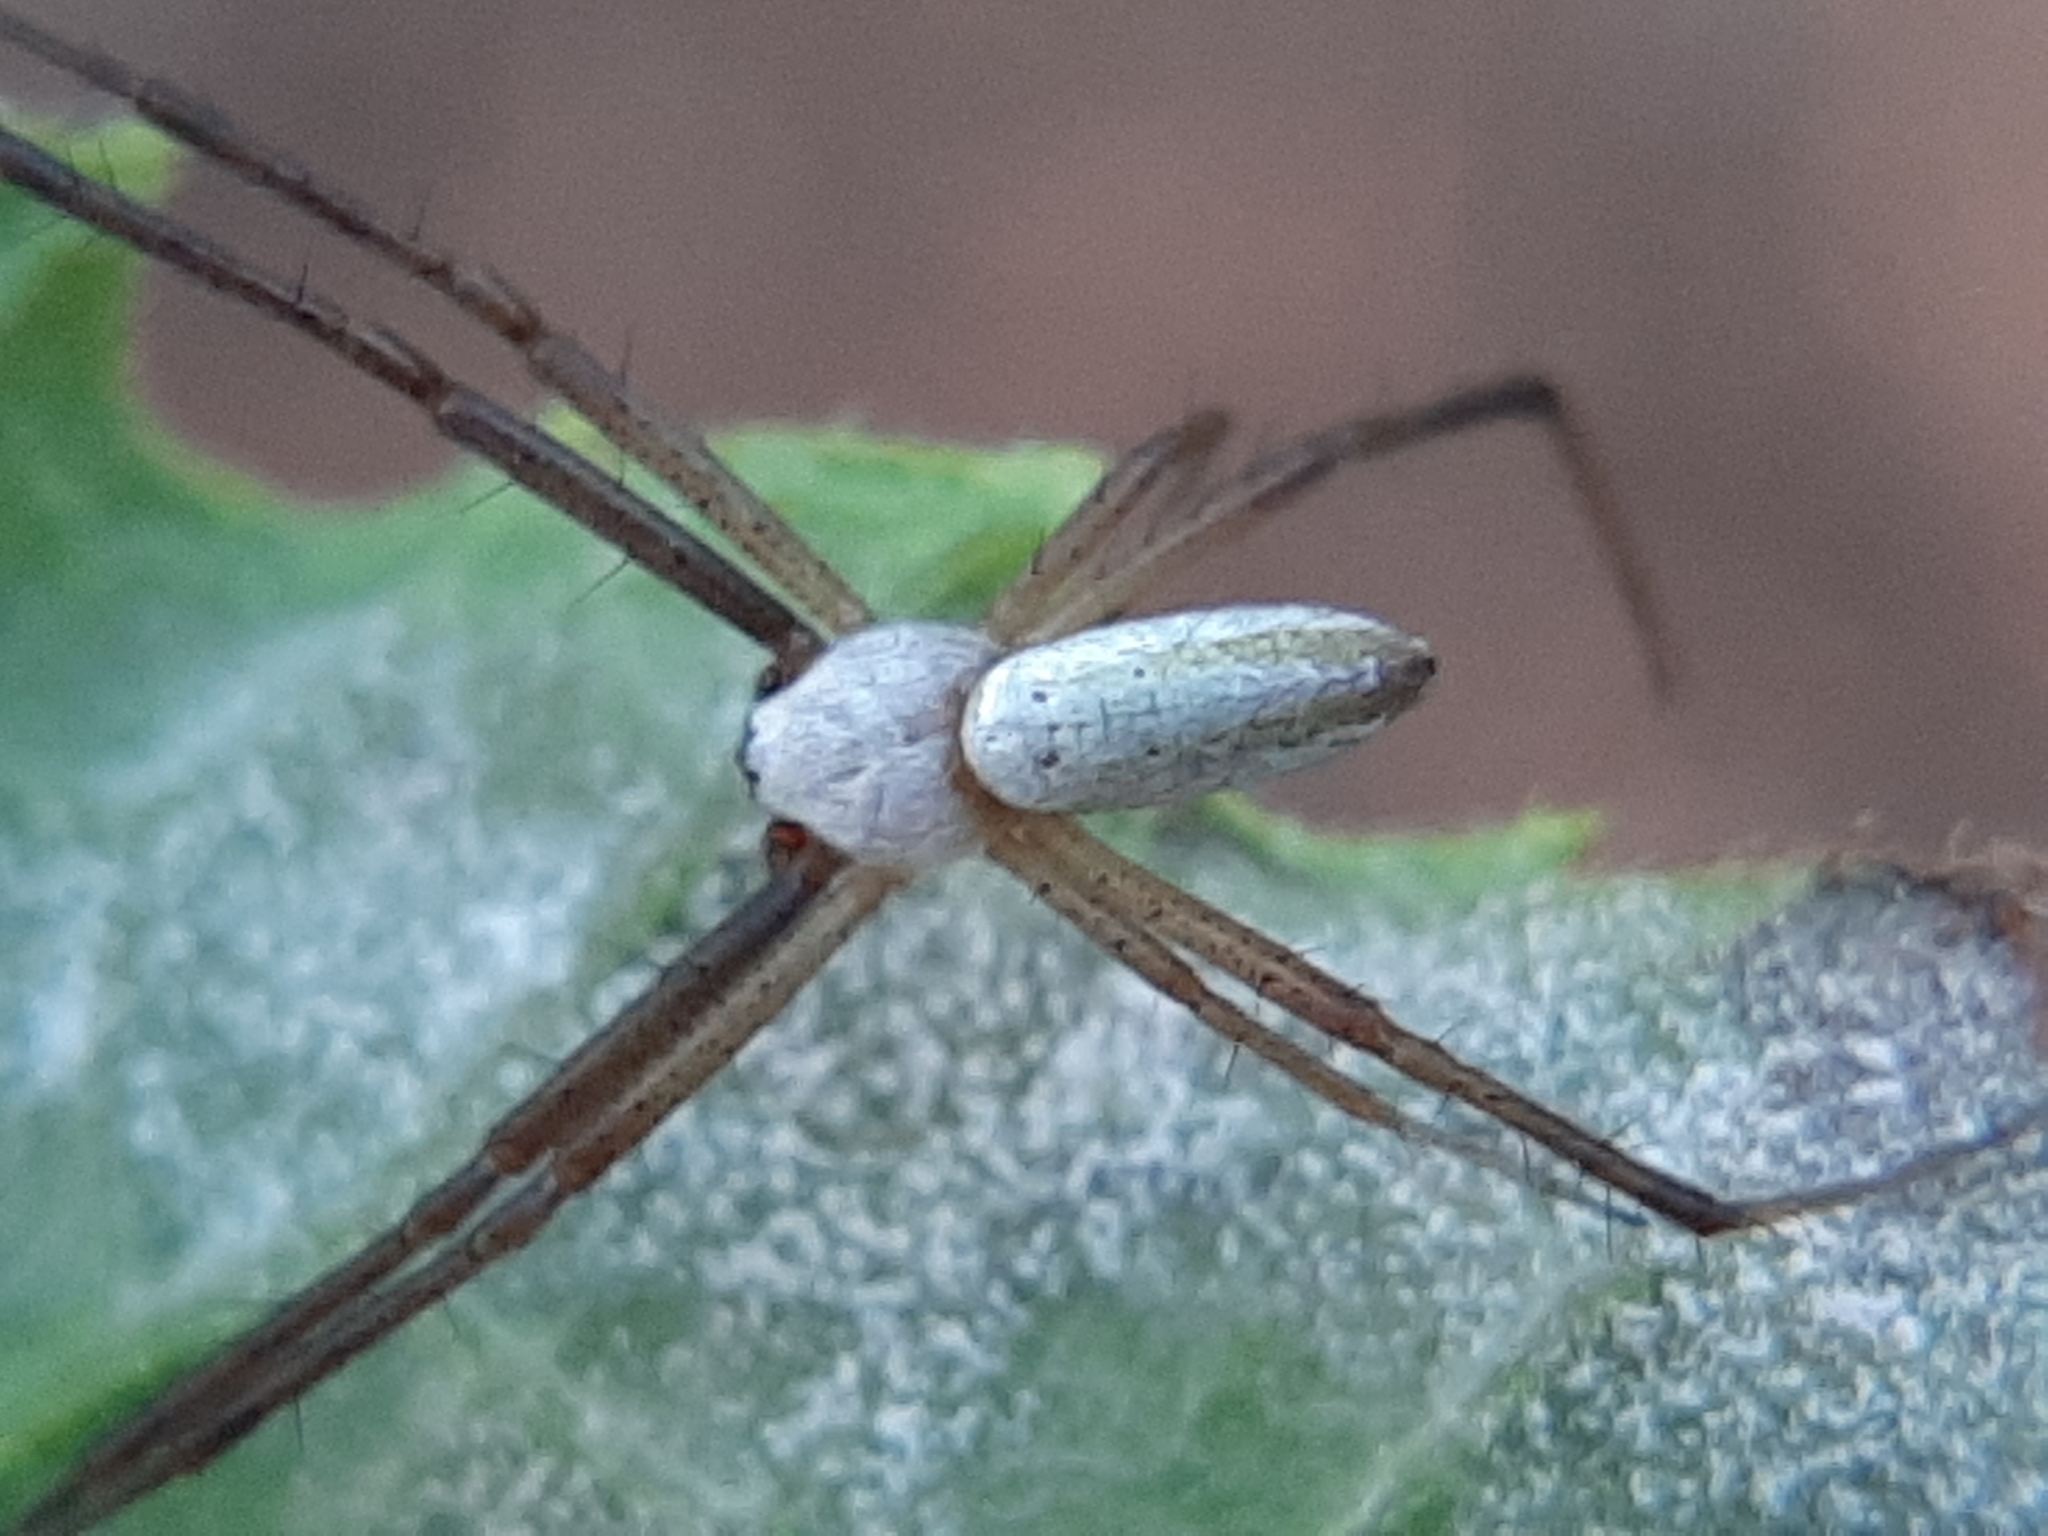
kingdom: Animalia
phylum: Arthropoda
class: Arachnida
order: Araneae
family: Araneidae
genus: Argiope
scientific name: Argiope trifasciata
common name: Banded garden spider
